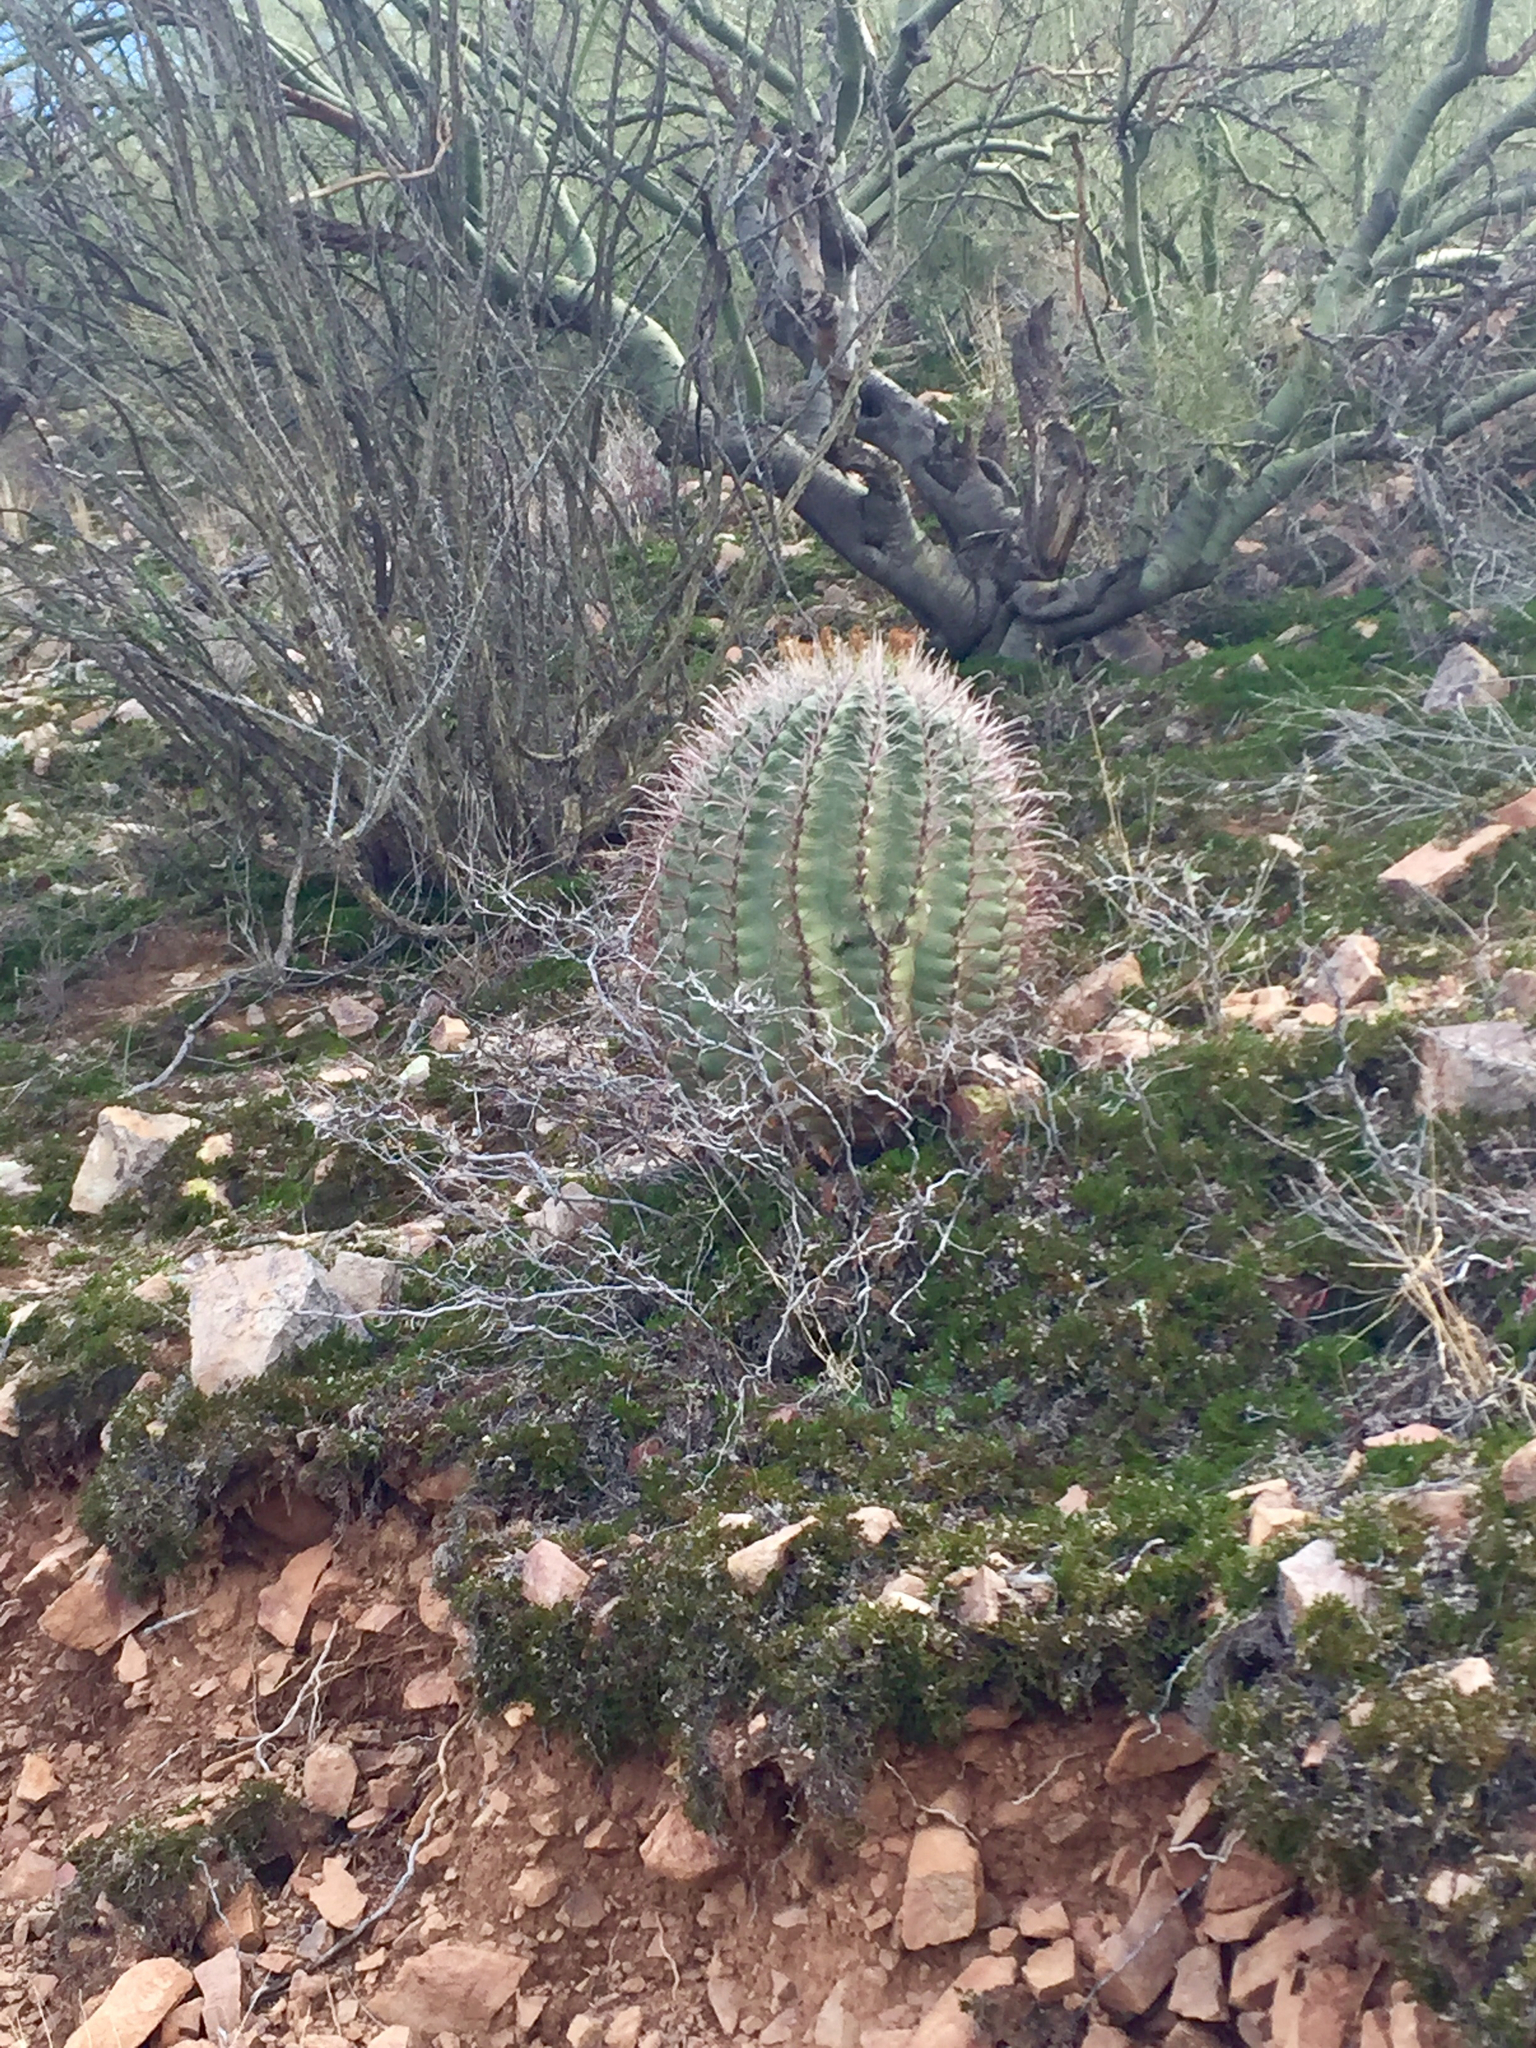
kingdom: Plantae
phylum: Tracheophyta
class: Magnoliopsida
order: Caryophyllales
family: Cactaceae
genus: Ferocactus
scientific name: Ferocactus wislizeni
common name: Candy barrel cactus
